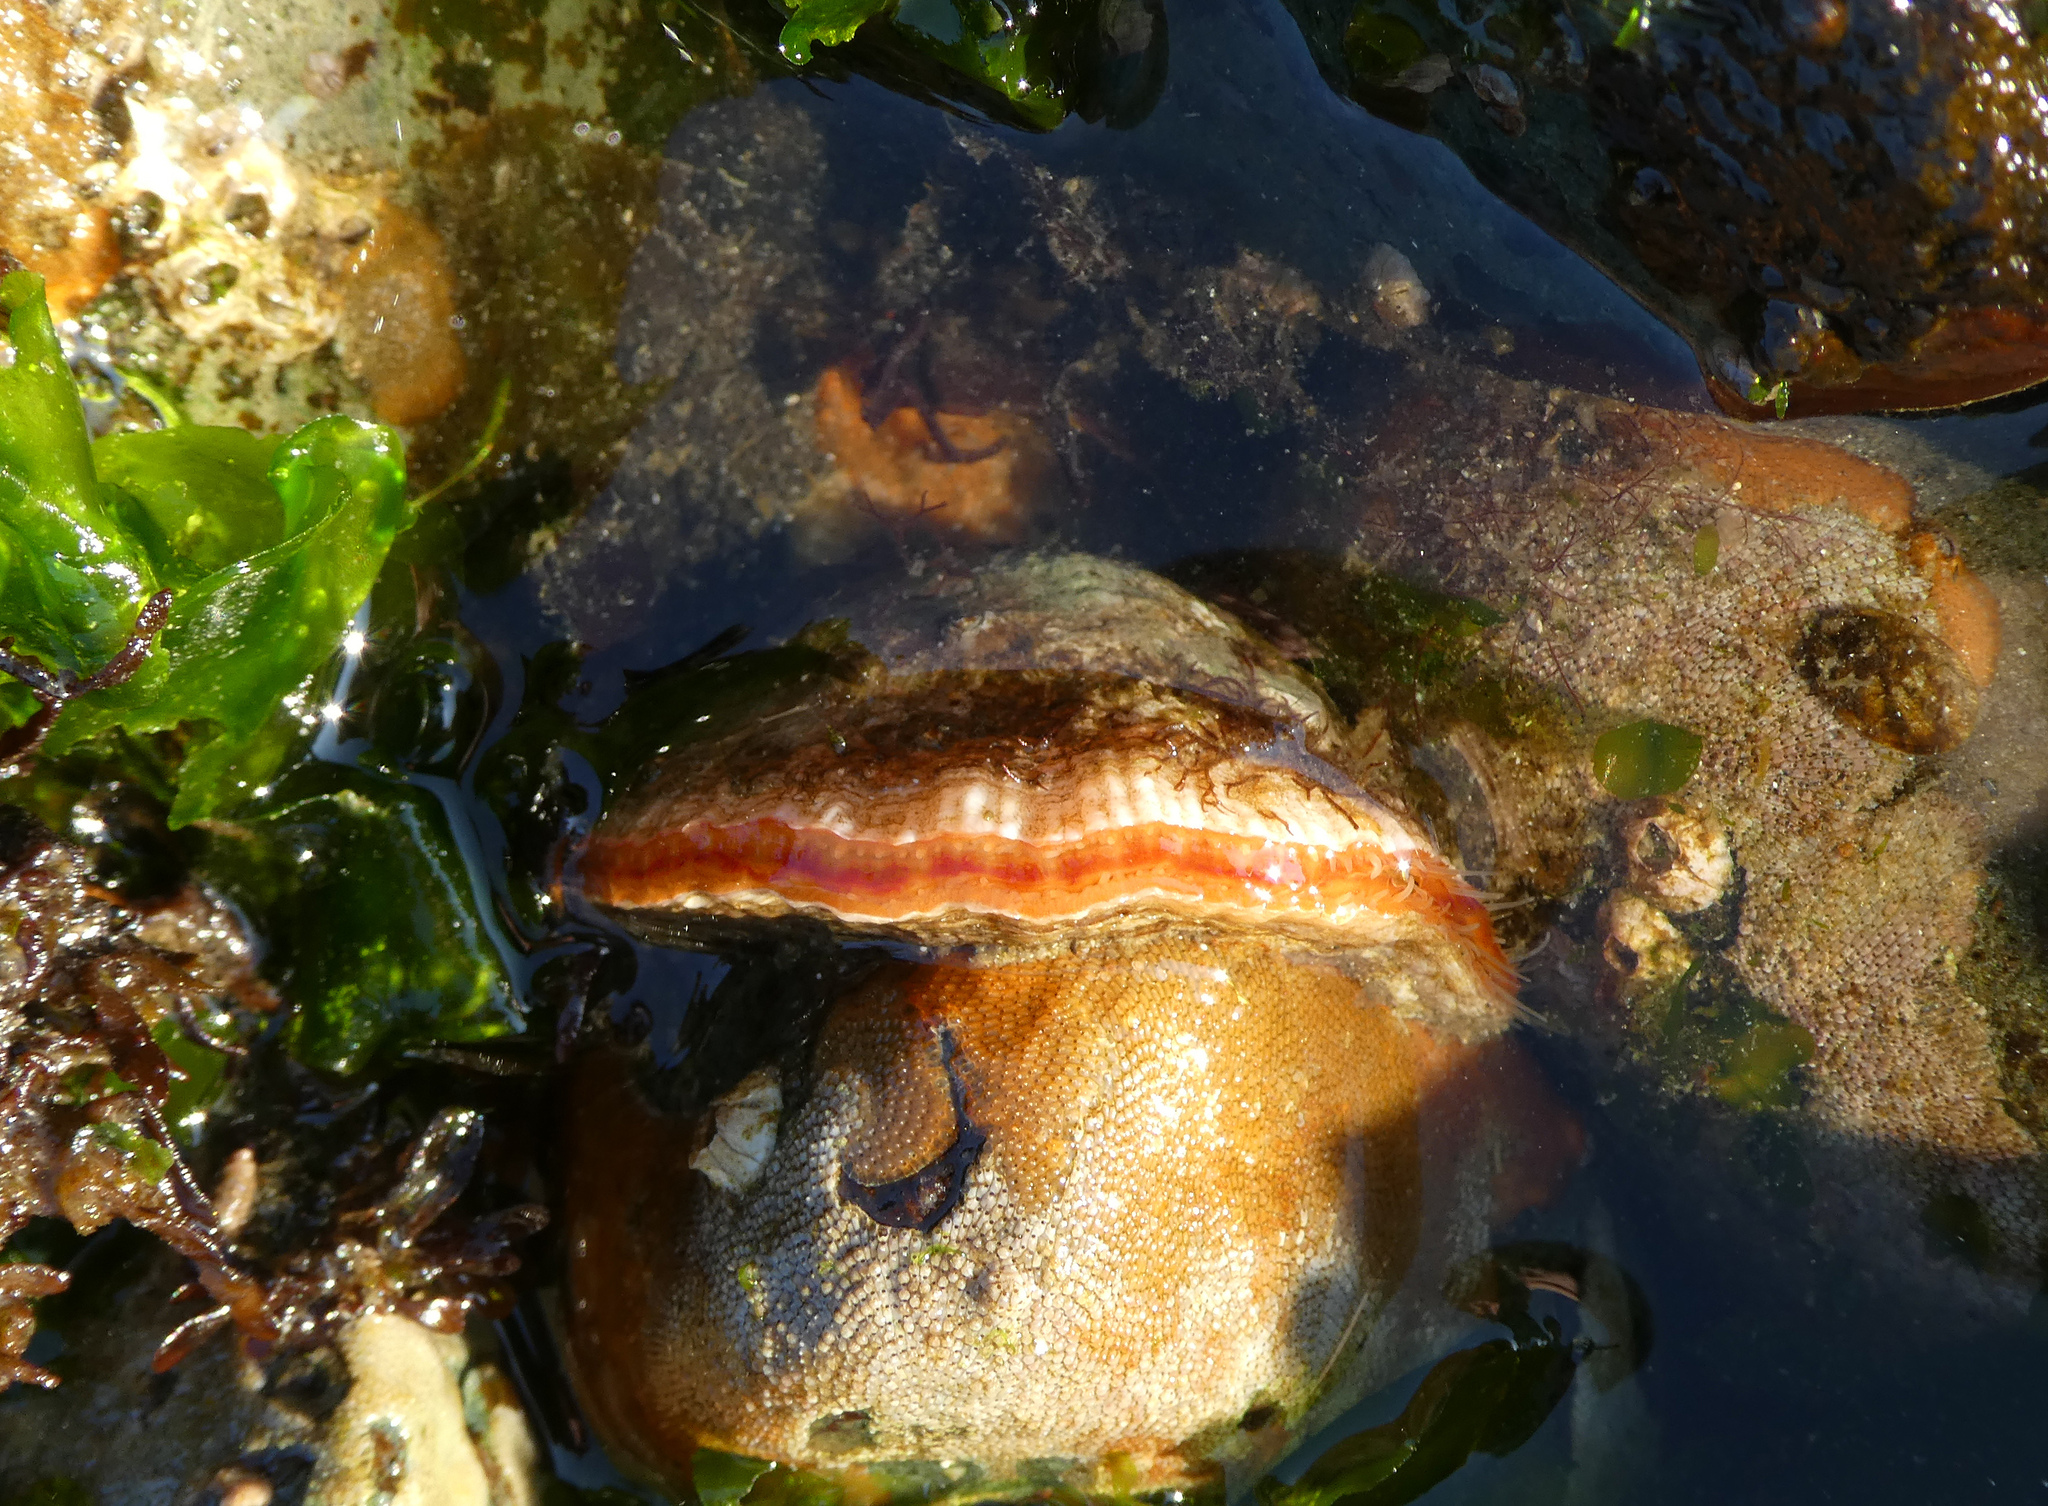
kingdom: Animalia
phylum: Mollusca
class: Bivalvia
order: Pectinida
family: Anomiidae
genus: Pododesmus
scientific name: Pododesmus macrochisma
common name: Alaska jingle
